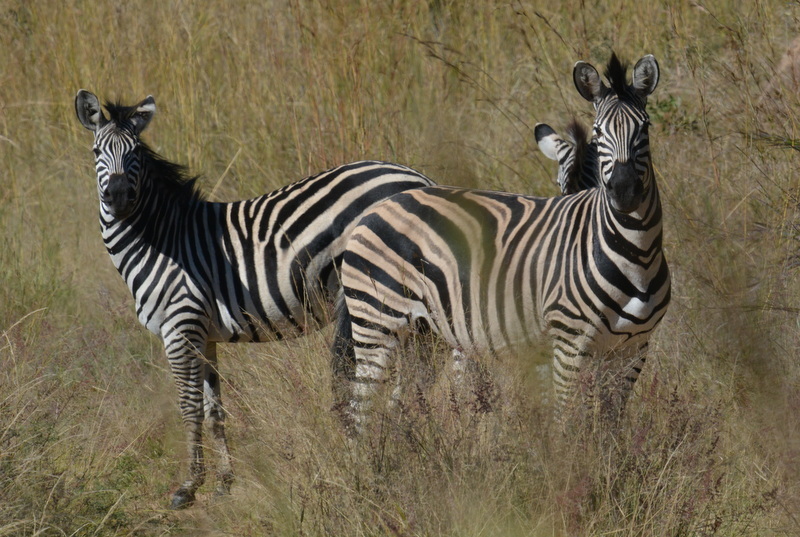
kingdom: Animalia
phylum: Chordata
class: Mammalia
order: Perissodactyla
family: Equidae
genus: Equus
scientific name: Equus quagga
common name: Plains zebra
